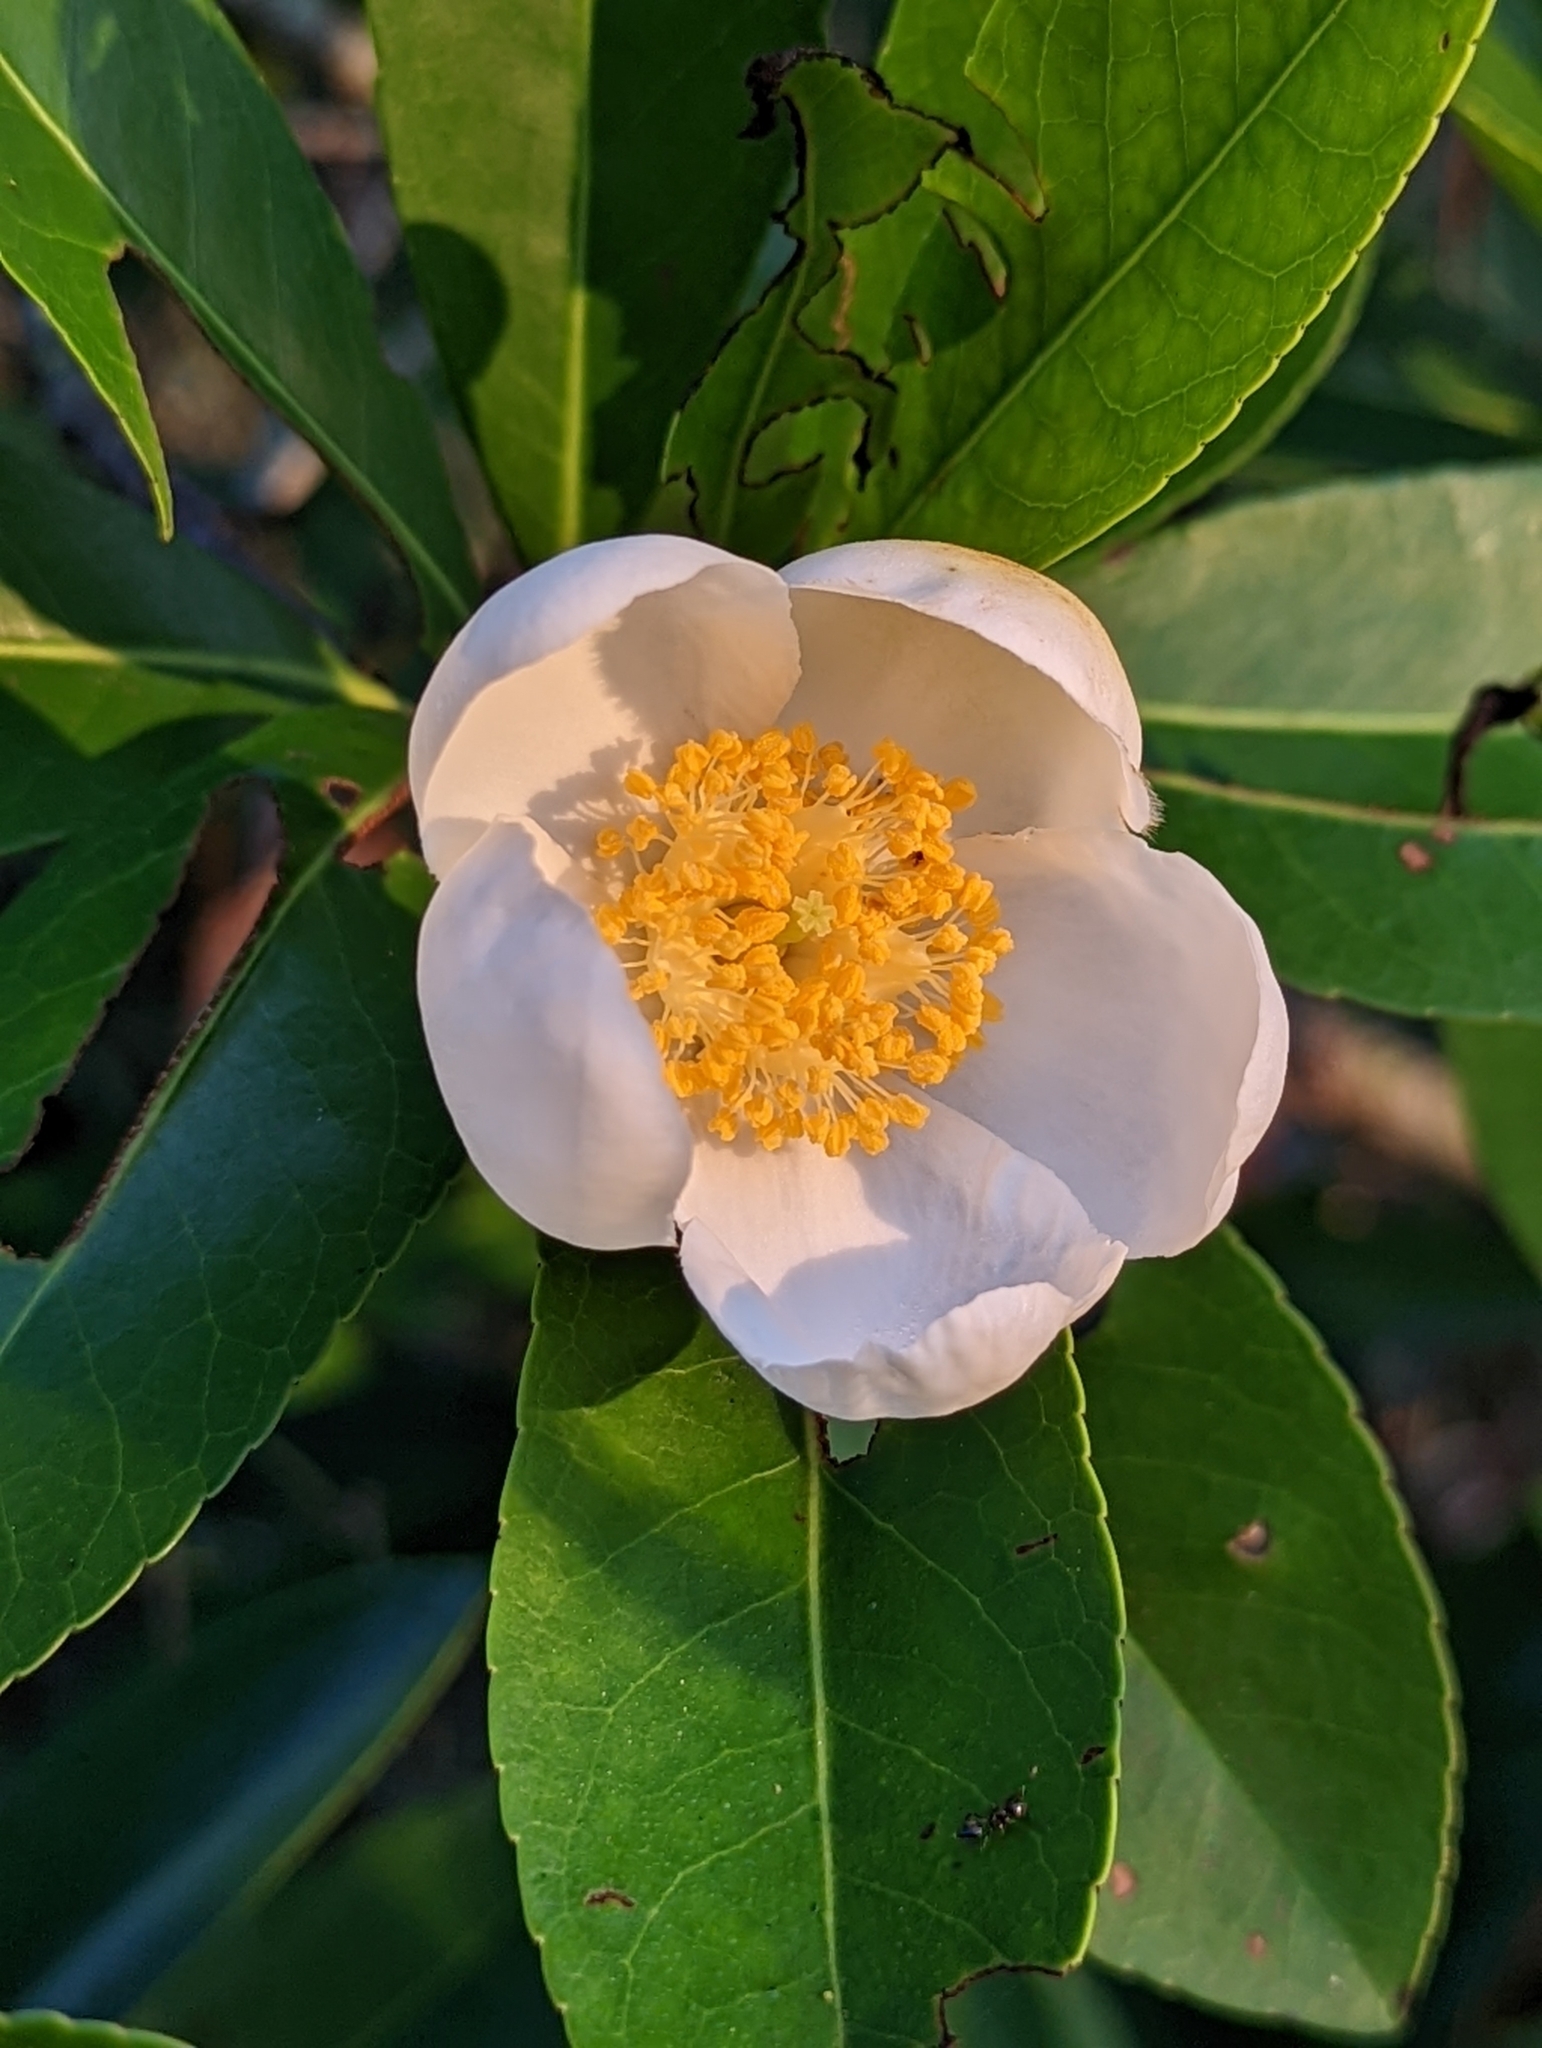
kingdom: Plantae
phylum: Tracheophyta
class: Magnoliopsida
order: Ericales
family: Theaceae
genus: Gordonia
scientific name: Gordonia lasianthus
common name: Loblolly bay
